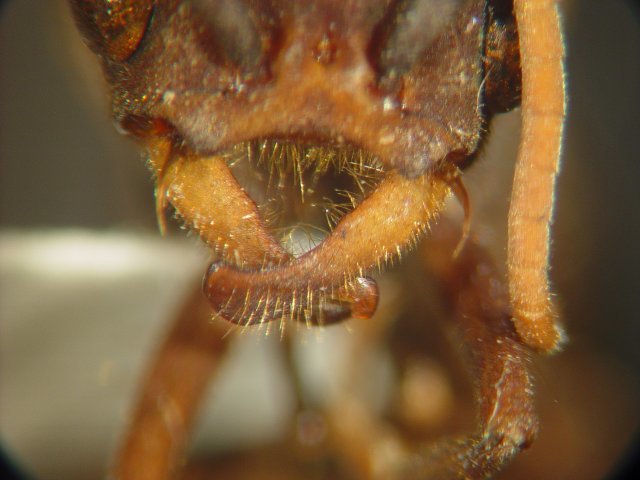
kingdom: Animalia
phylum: Arthropoda
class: Insecta
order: Hymenoptera
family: Formicidae
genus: Eciton
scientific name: Eciton jansoni
